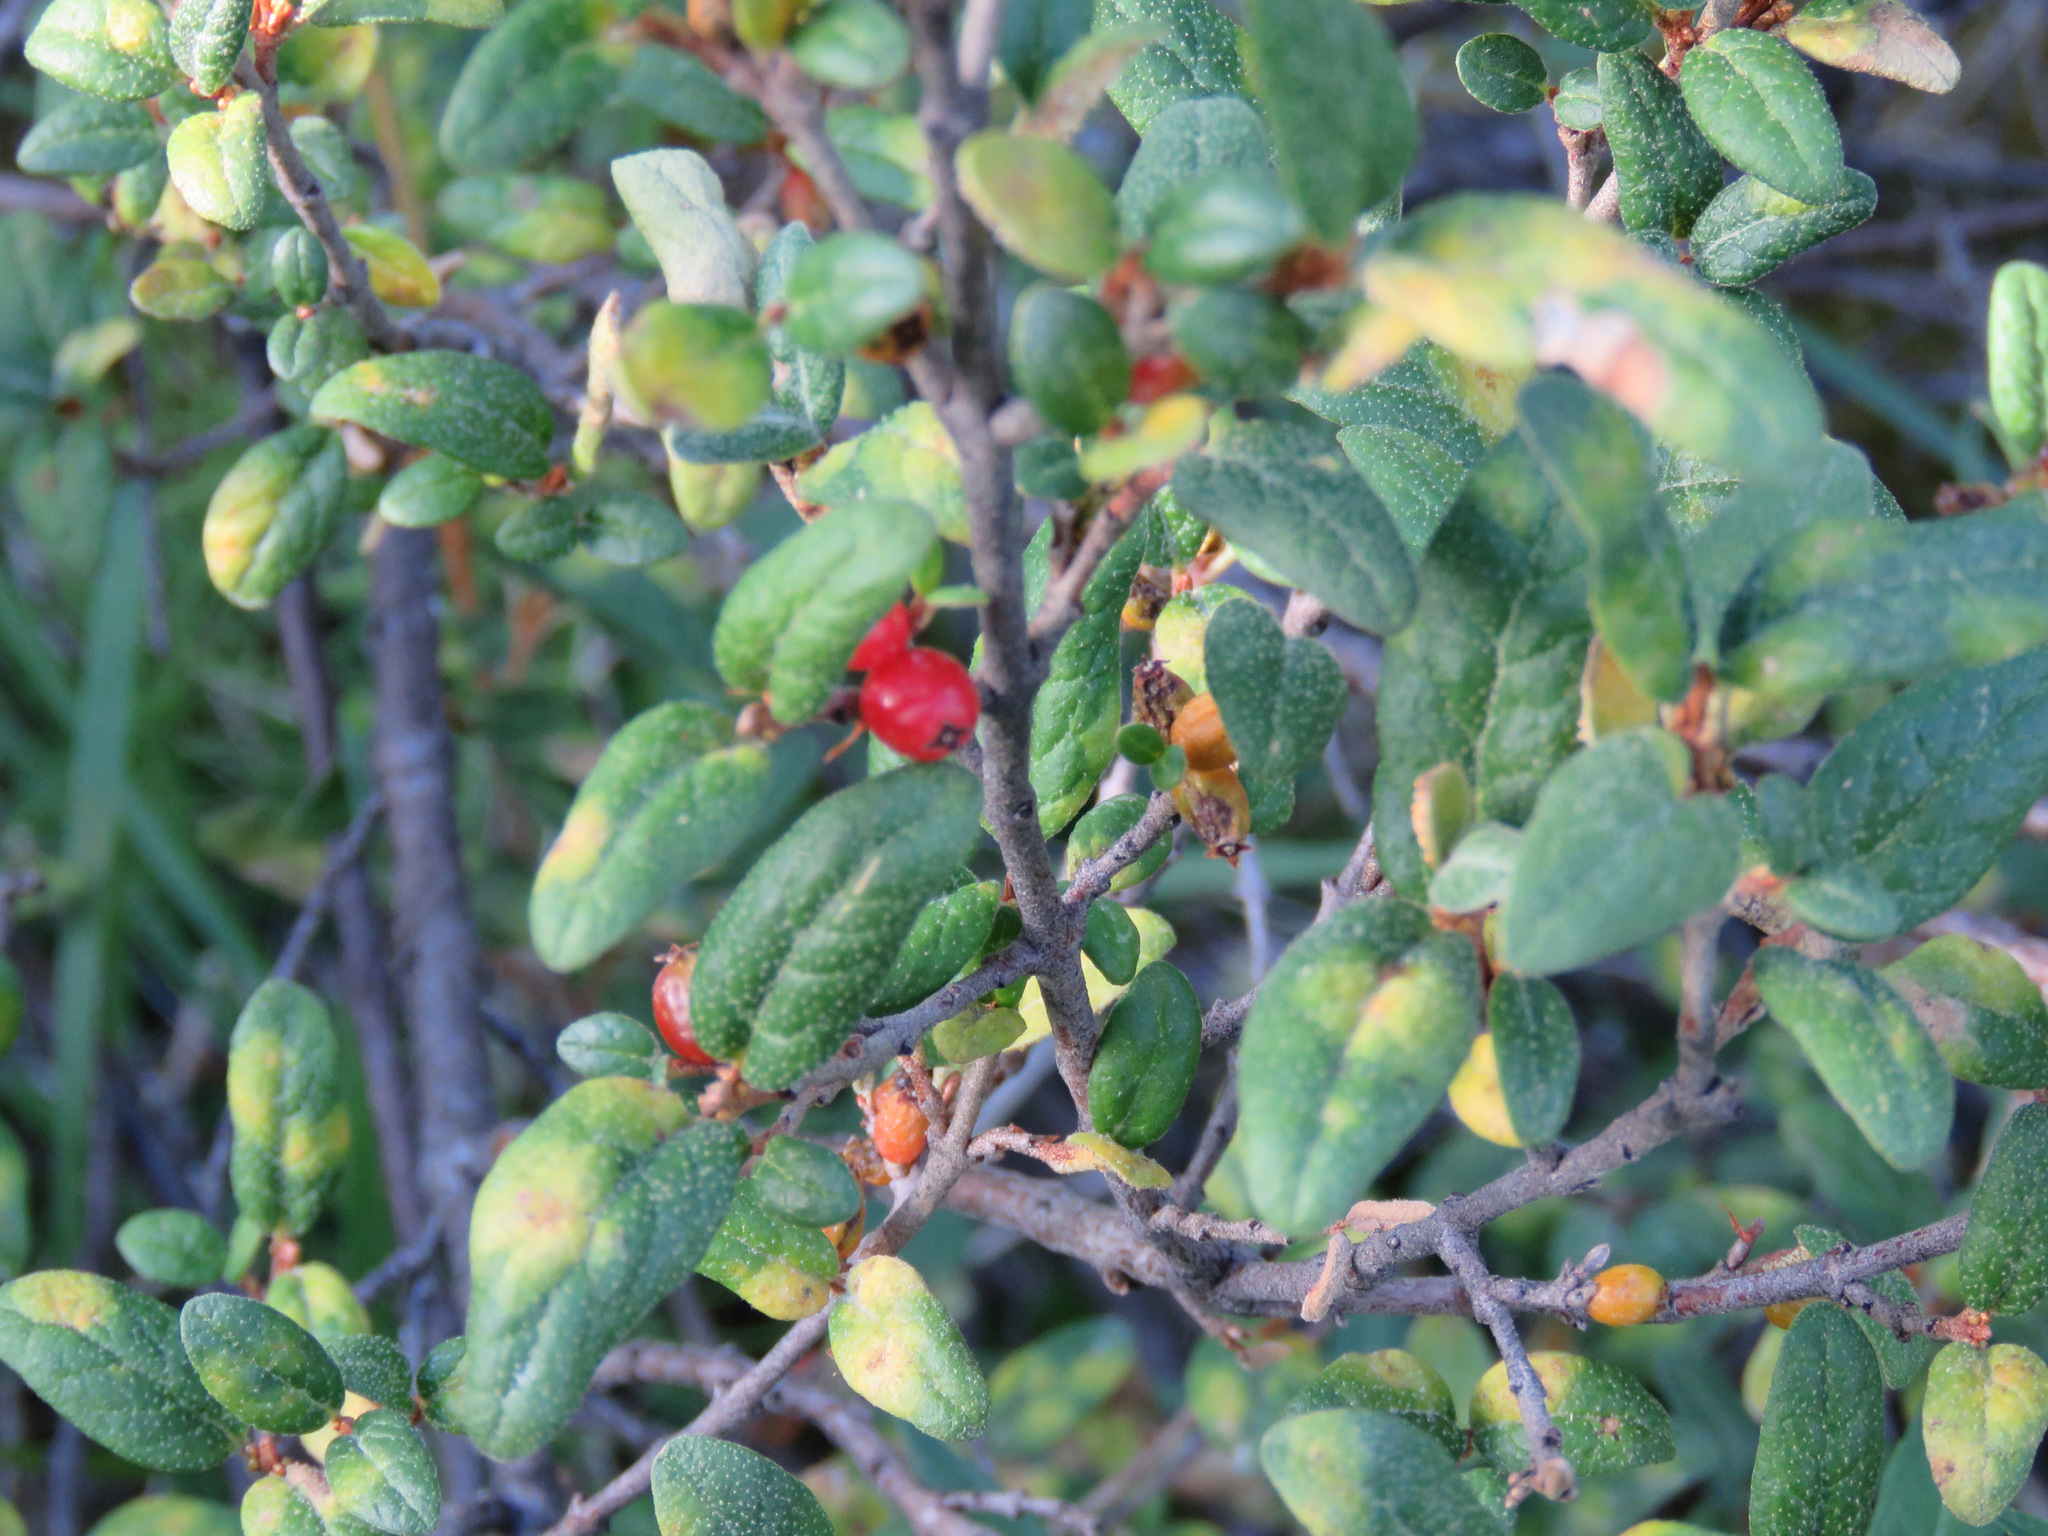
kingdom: Plantae
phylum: Tracheophyta
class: Magnoliopsida
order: Rosales
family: Elaeagnaceae
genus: Shepherdia
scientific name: Shepherdia canadensis
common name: Soapberry
